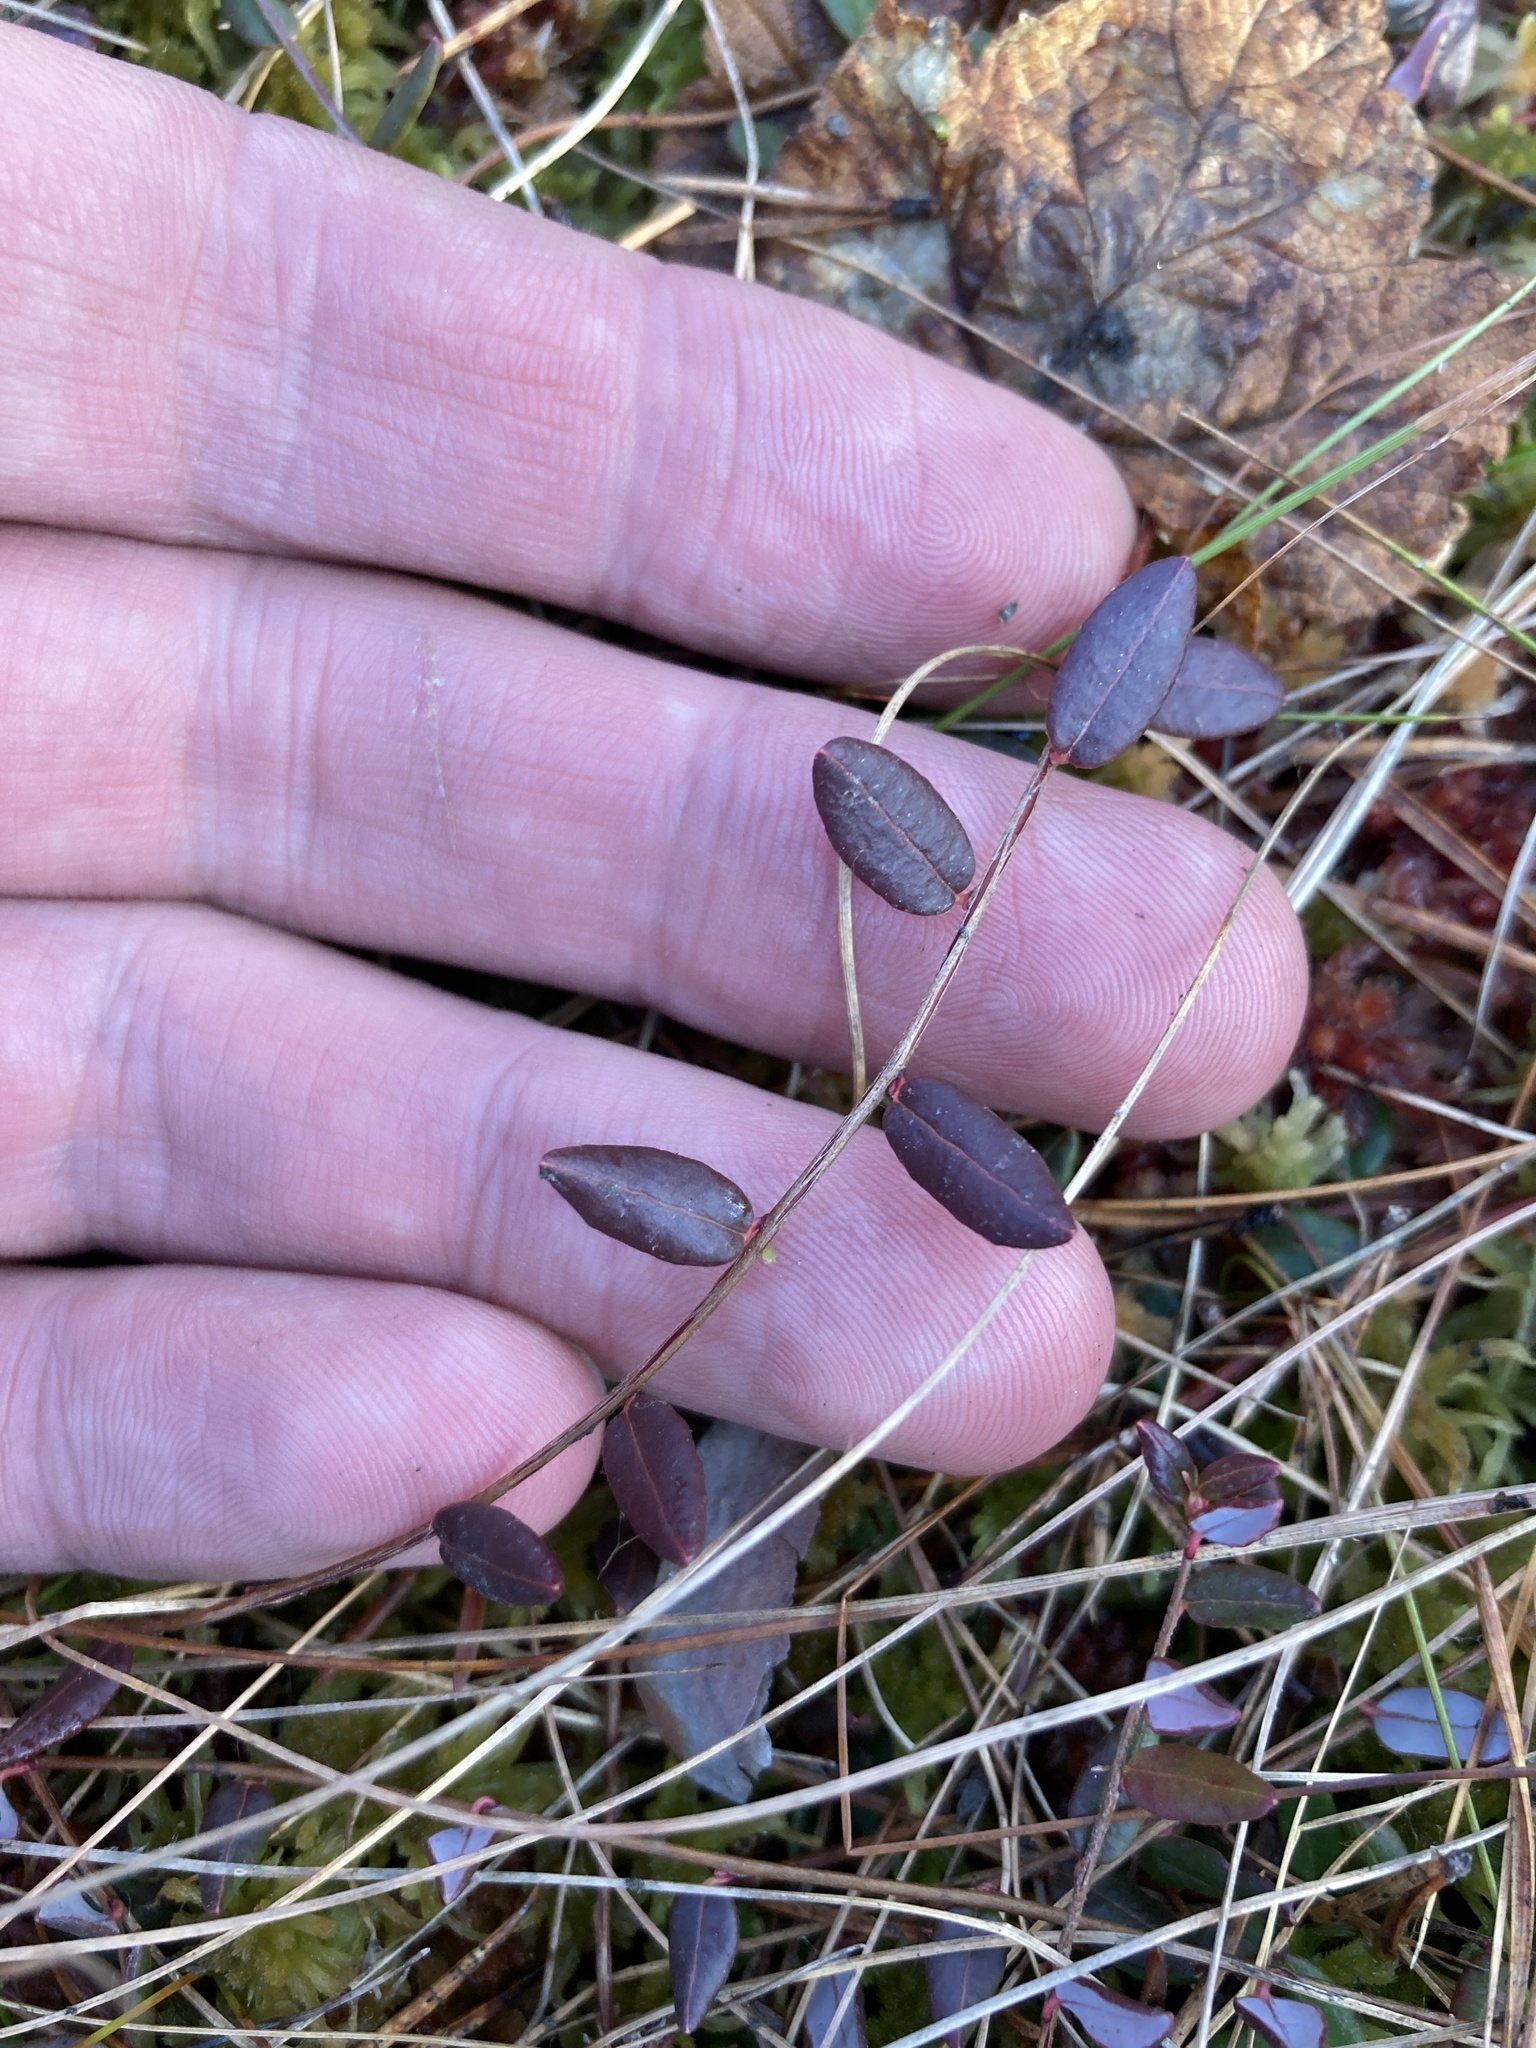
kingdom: Plantae
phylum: Tracheophyta
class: Magnoliopsida
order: Ericales
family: Ericaceae
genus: Vaccinium
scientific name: Vaccinium oxycoccos
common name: Cranberry
